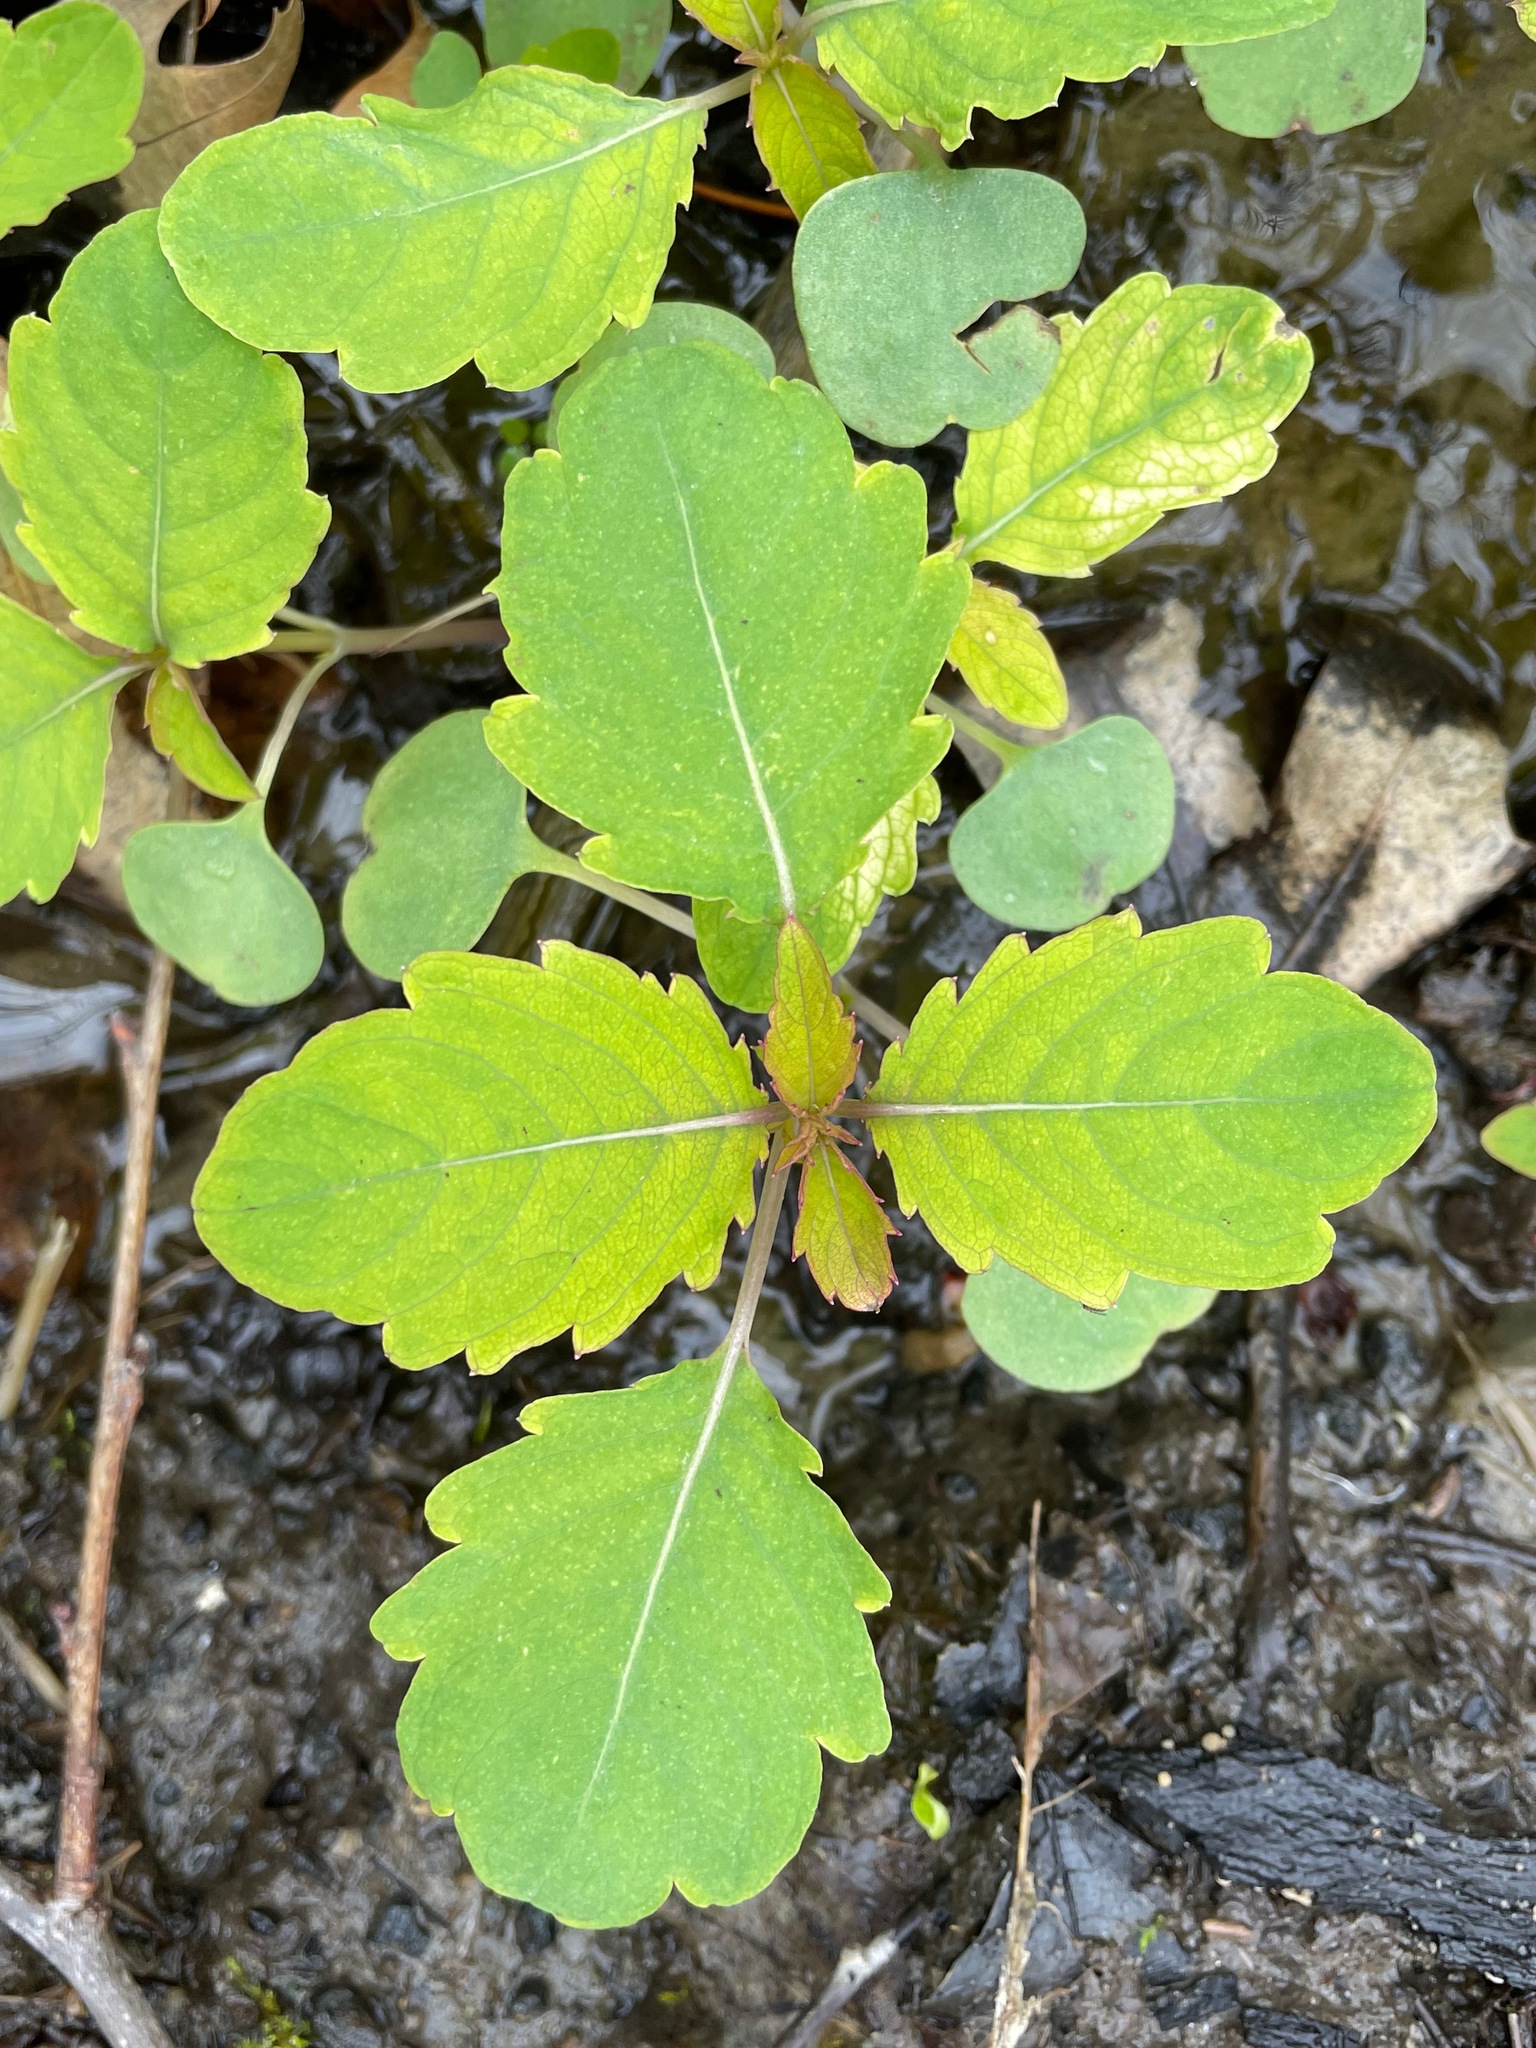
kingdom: Plantae
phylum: Tracheophyta
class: Magnoliopsida
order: Ericales
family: Balsaminaceae
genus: Impatiens
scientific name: Impatiens
